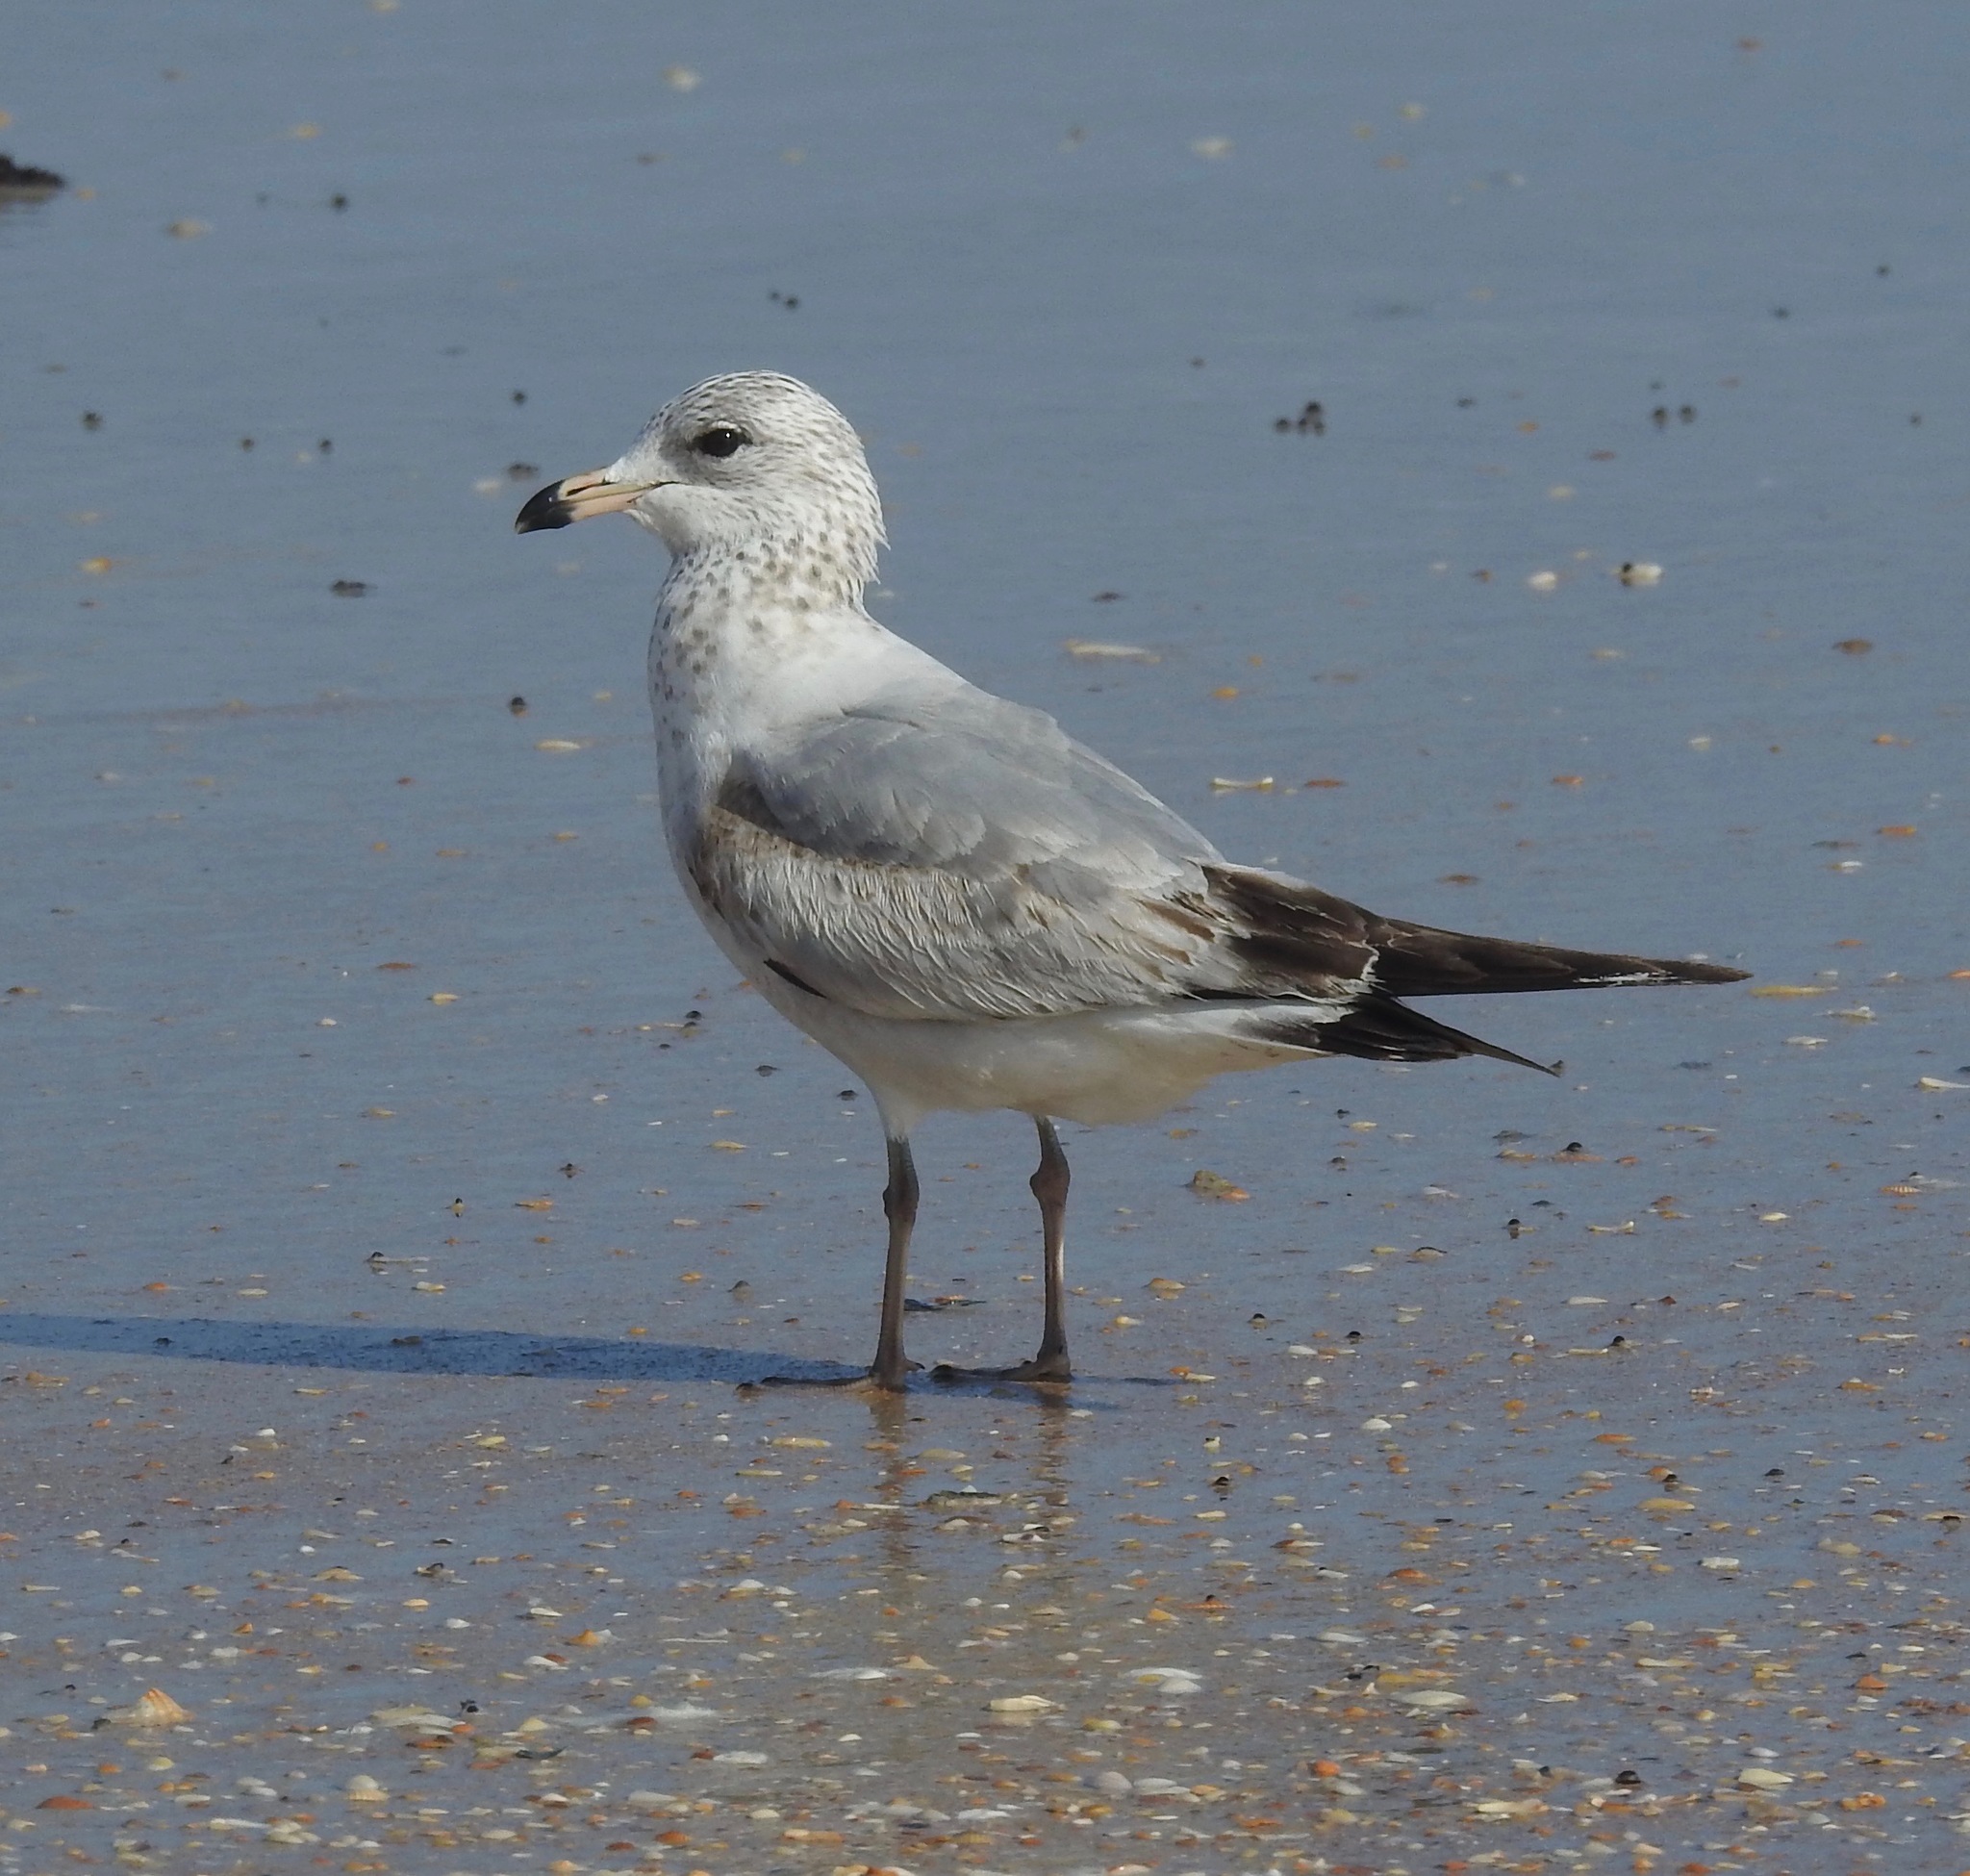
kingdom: Animalia
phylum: Chordata
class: Aves
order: Charadriiformes
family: Laridae
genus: Larus
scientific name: Larus delawarensis
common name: Ring-billed gull
